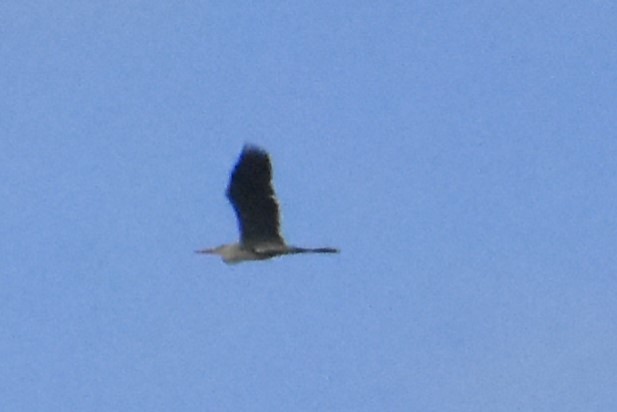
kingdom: Animalia
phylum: Chordata
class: Aves
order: Pelecaniformes
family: Ardeidae
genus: Ardea
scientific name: Ardea cinerea
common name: Grey heron
